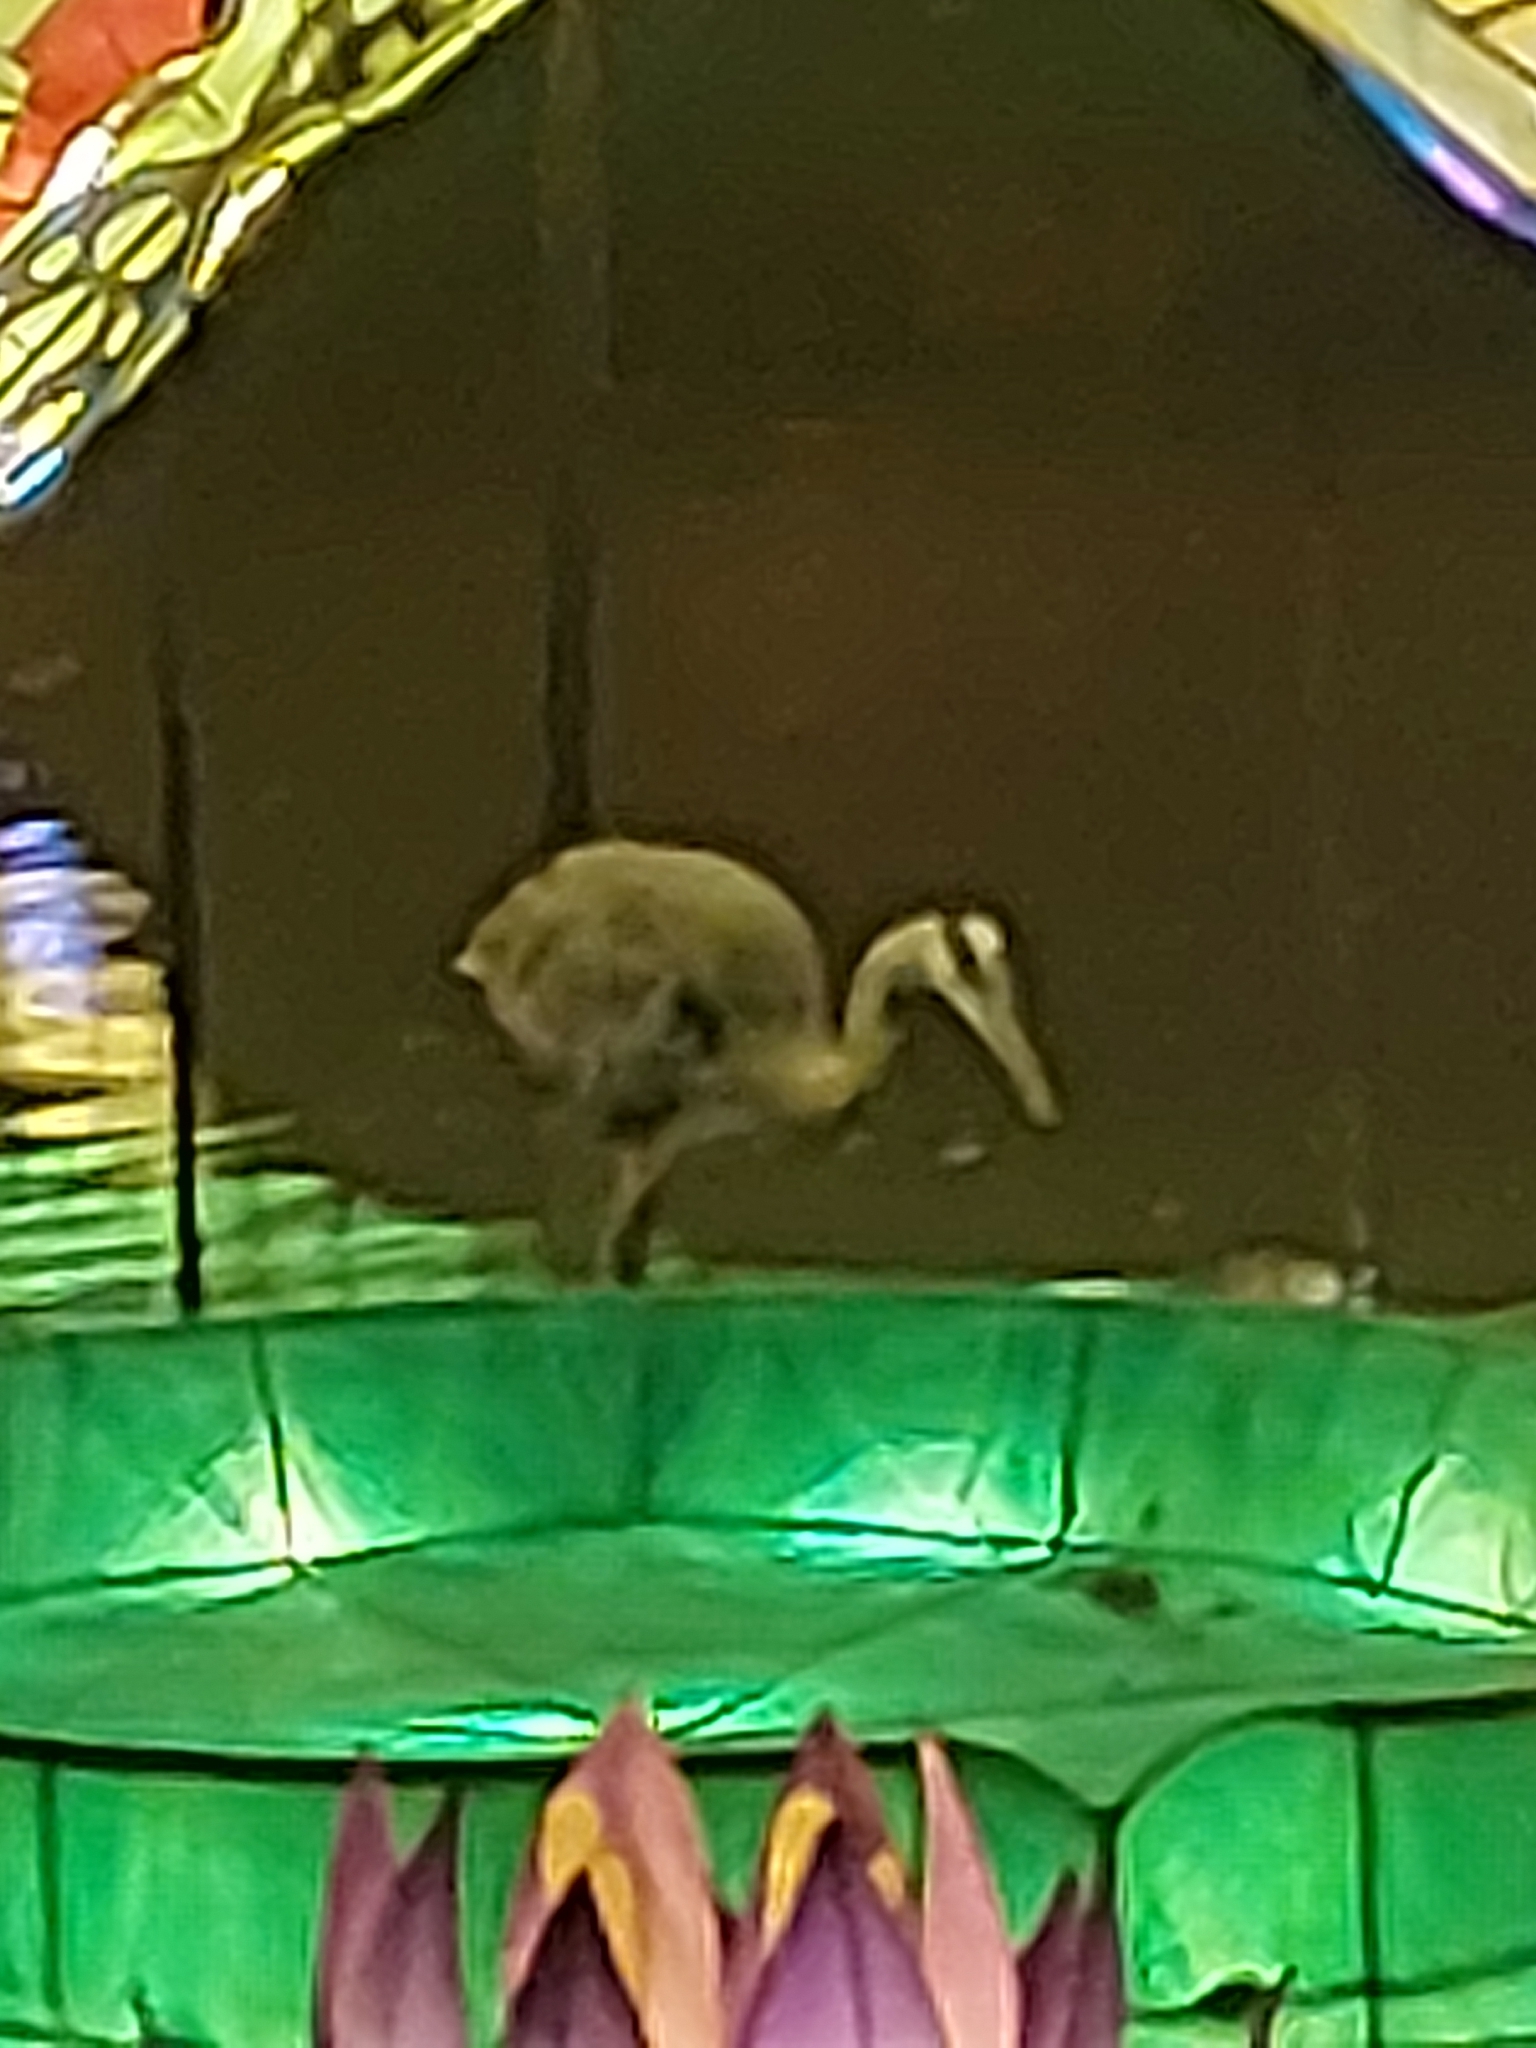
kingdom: Animalia
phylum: Chordata
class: Aves
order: Pelecaniformes
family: Ardeidae
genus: Ardea
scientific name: Ardea herodias
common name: Great blue heron
